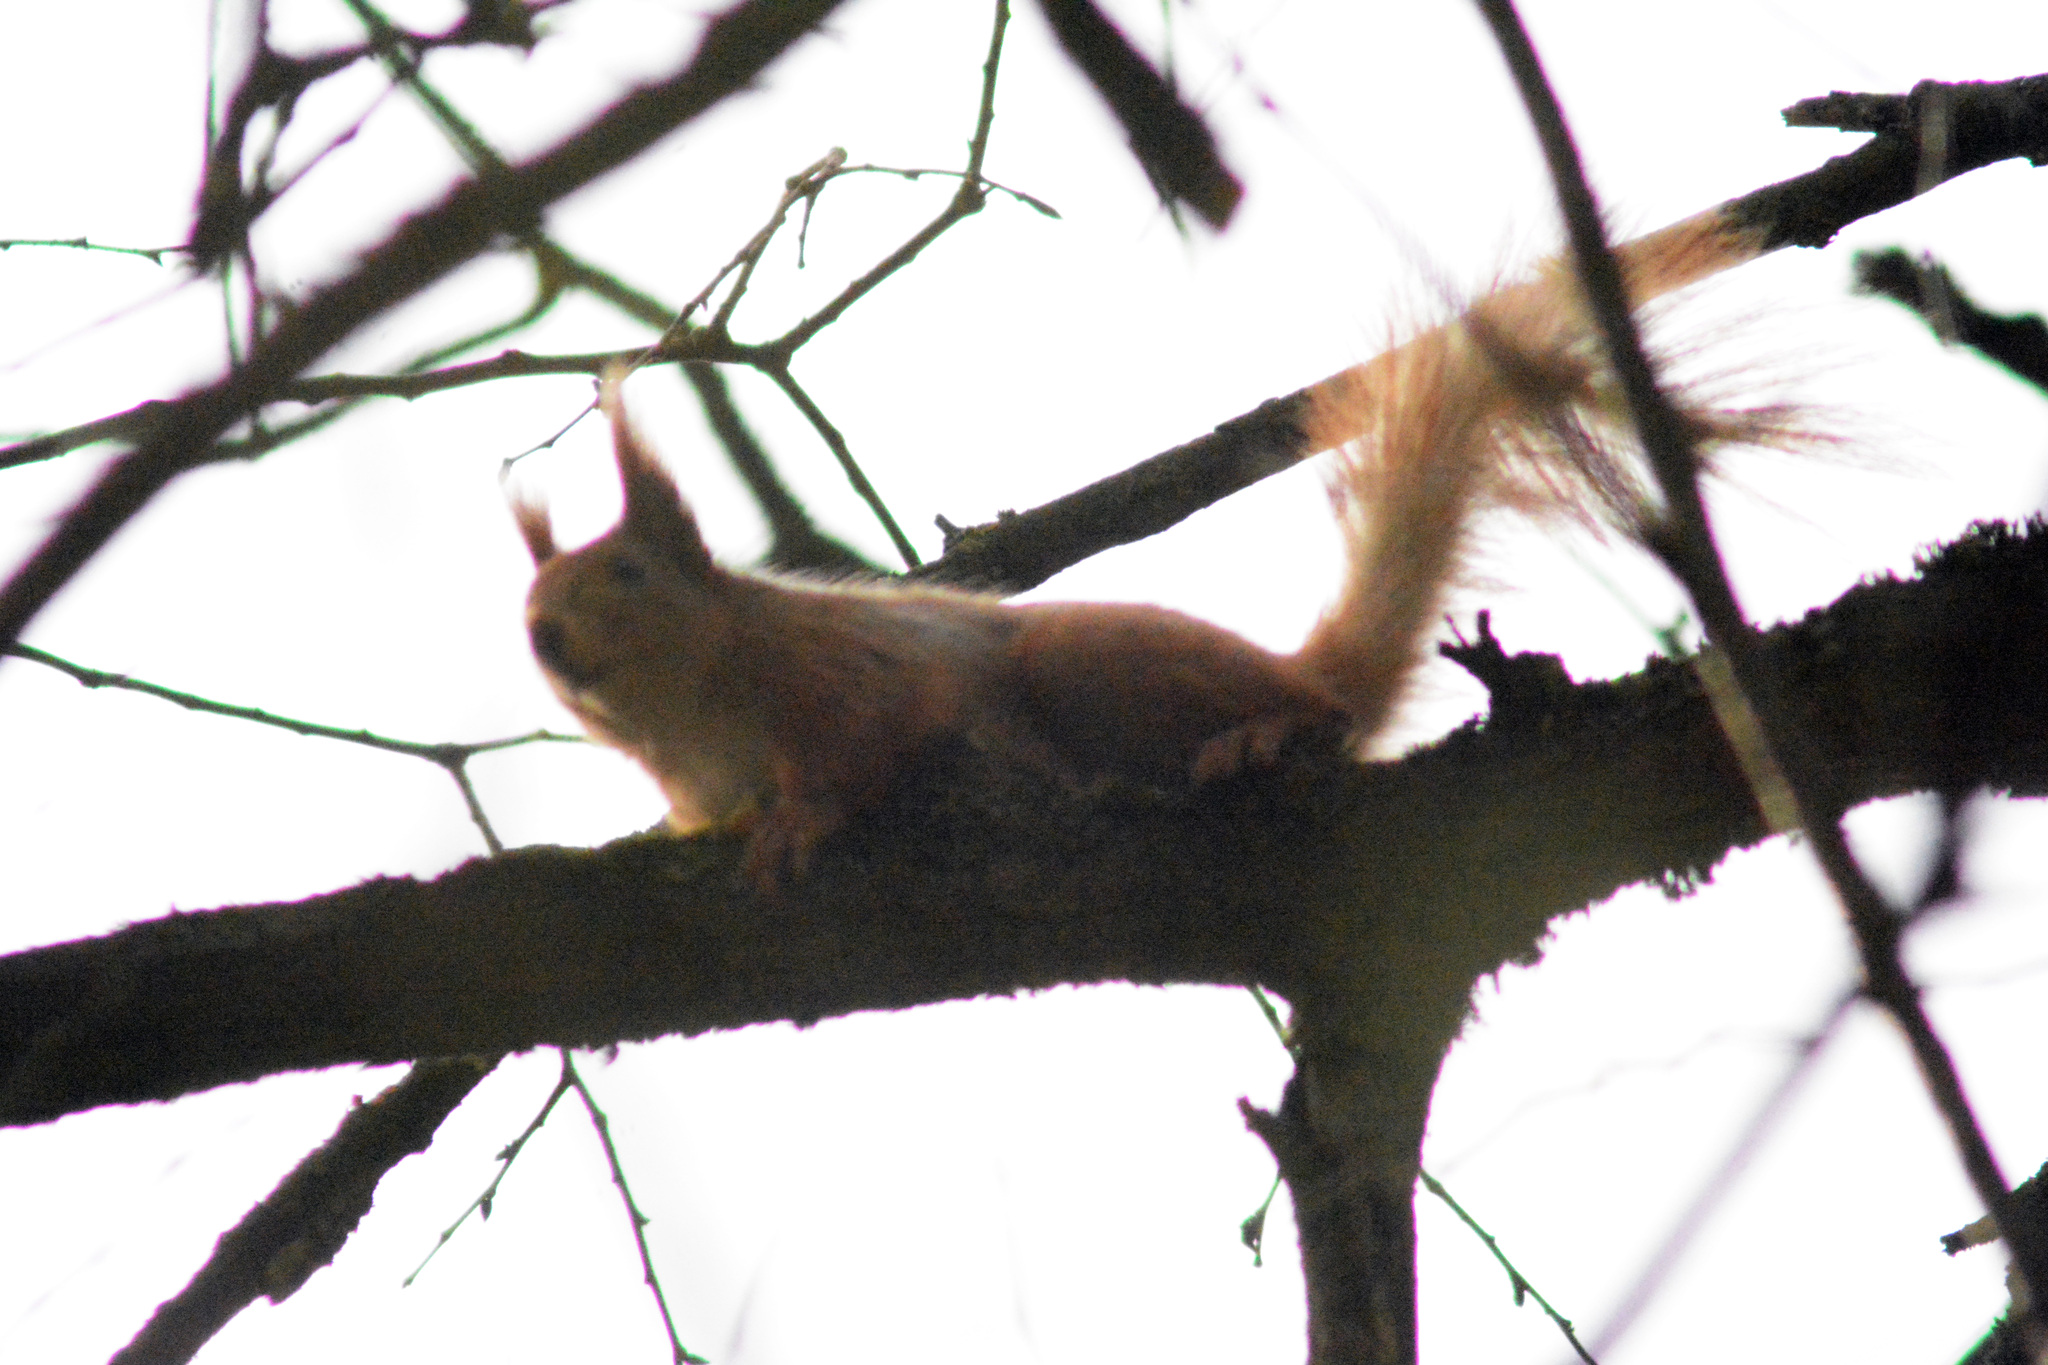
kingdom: Animalia
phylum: Chordata
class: Mammalia
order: Rodentia
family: Sciuridae
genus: Sciurus
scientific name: Sciurus vulgaris
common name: Eurasian red squirrel
